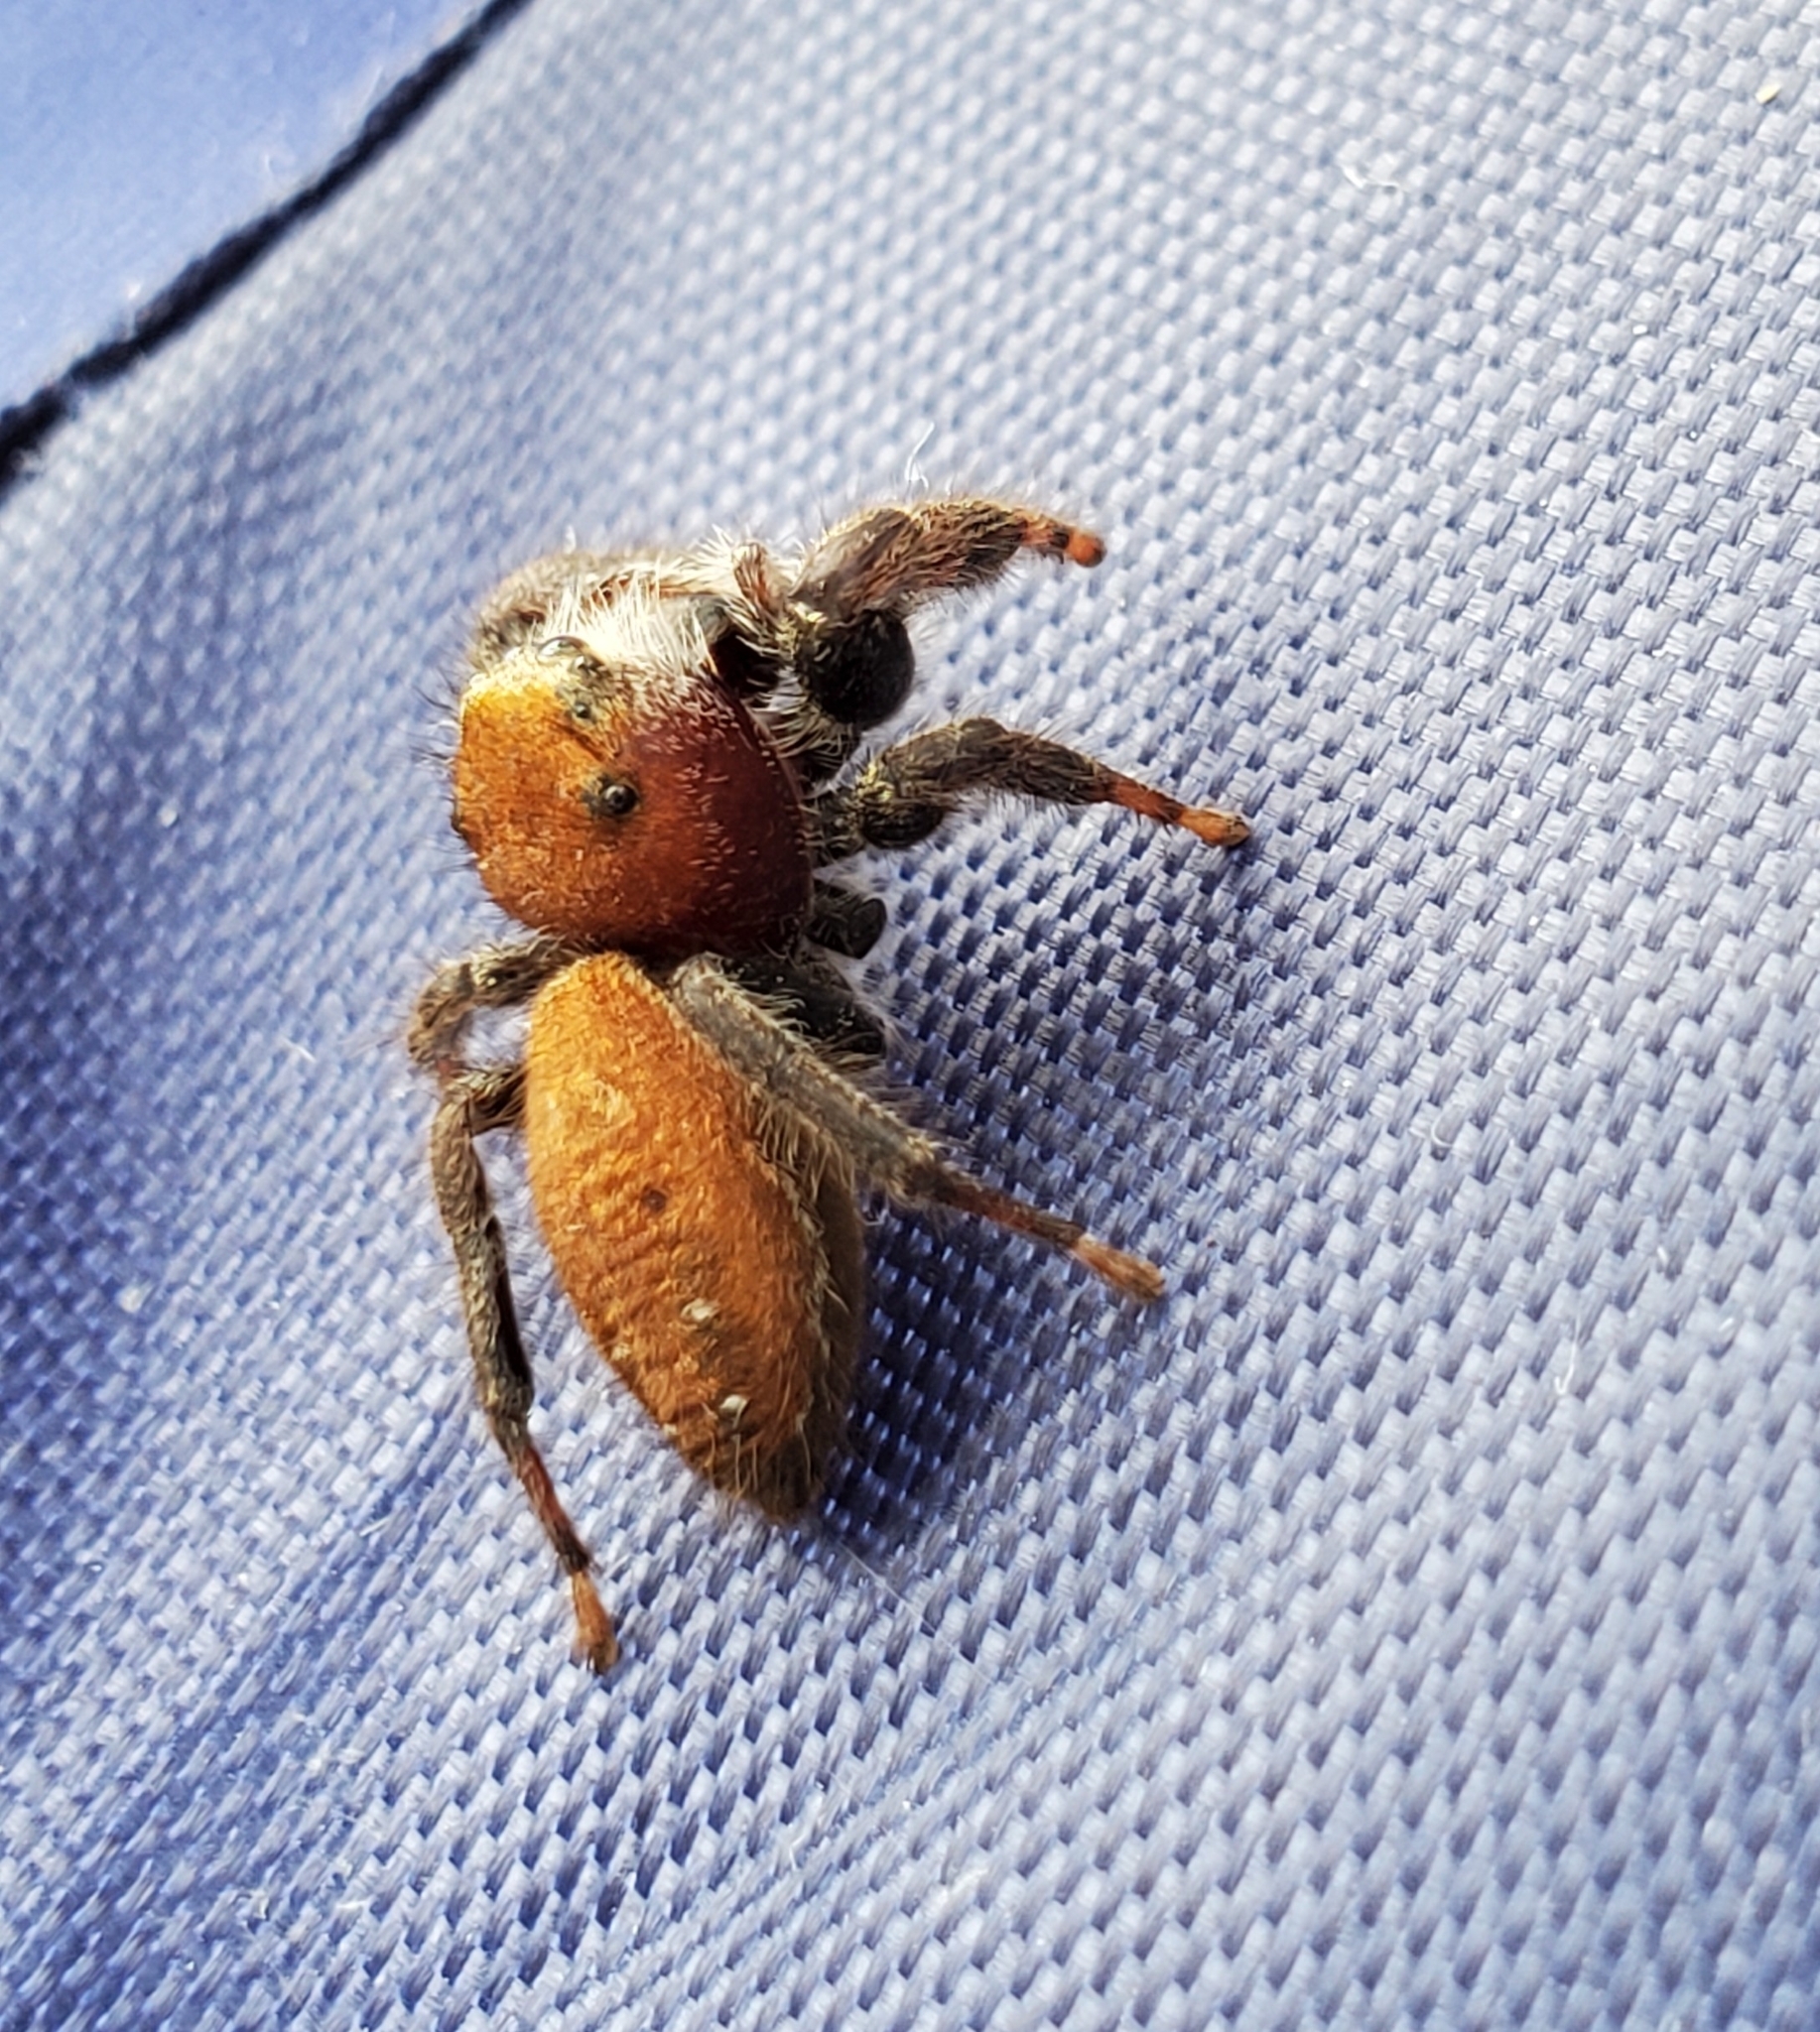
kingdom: Animalia
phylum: Arthropoda
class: Arachnida
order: Araneae
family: Salticidae
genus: Phidippus
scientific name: Phidippus cardinalis
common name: Cardinal jumper
